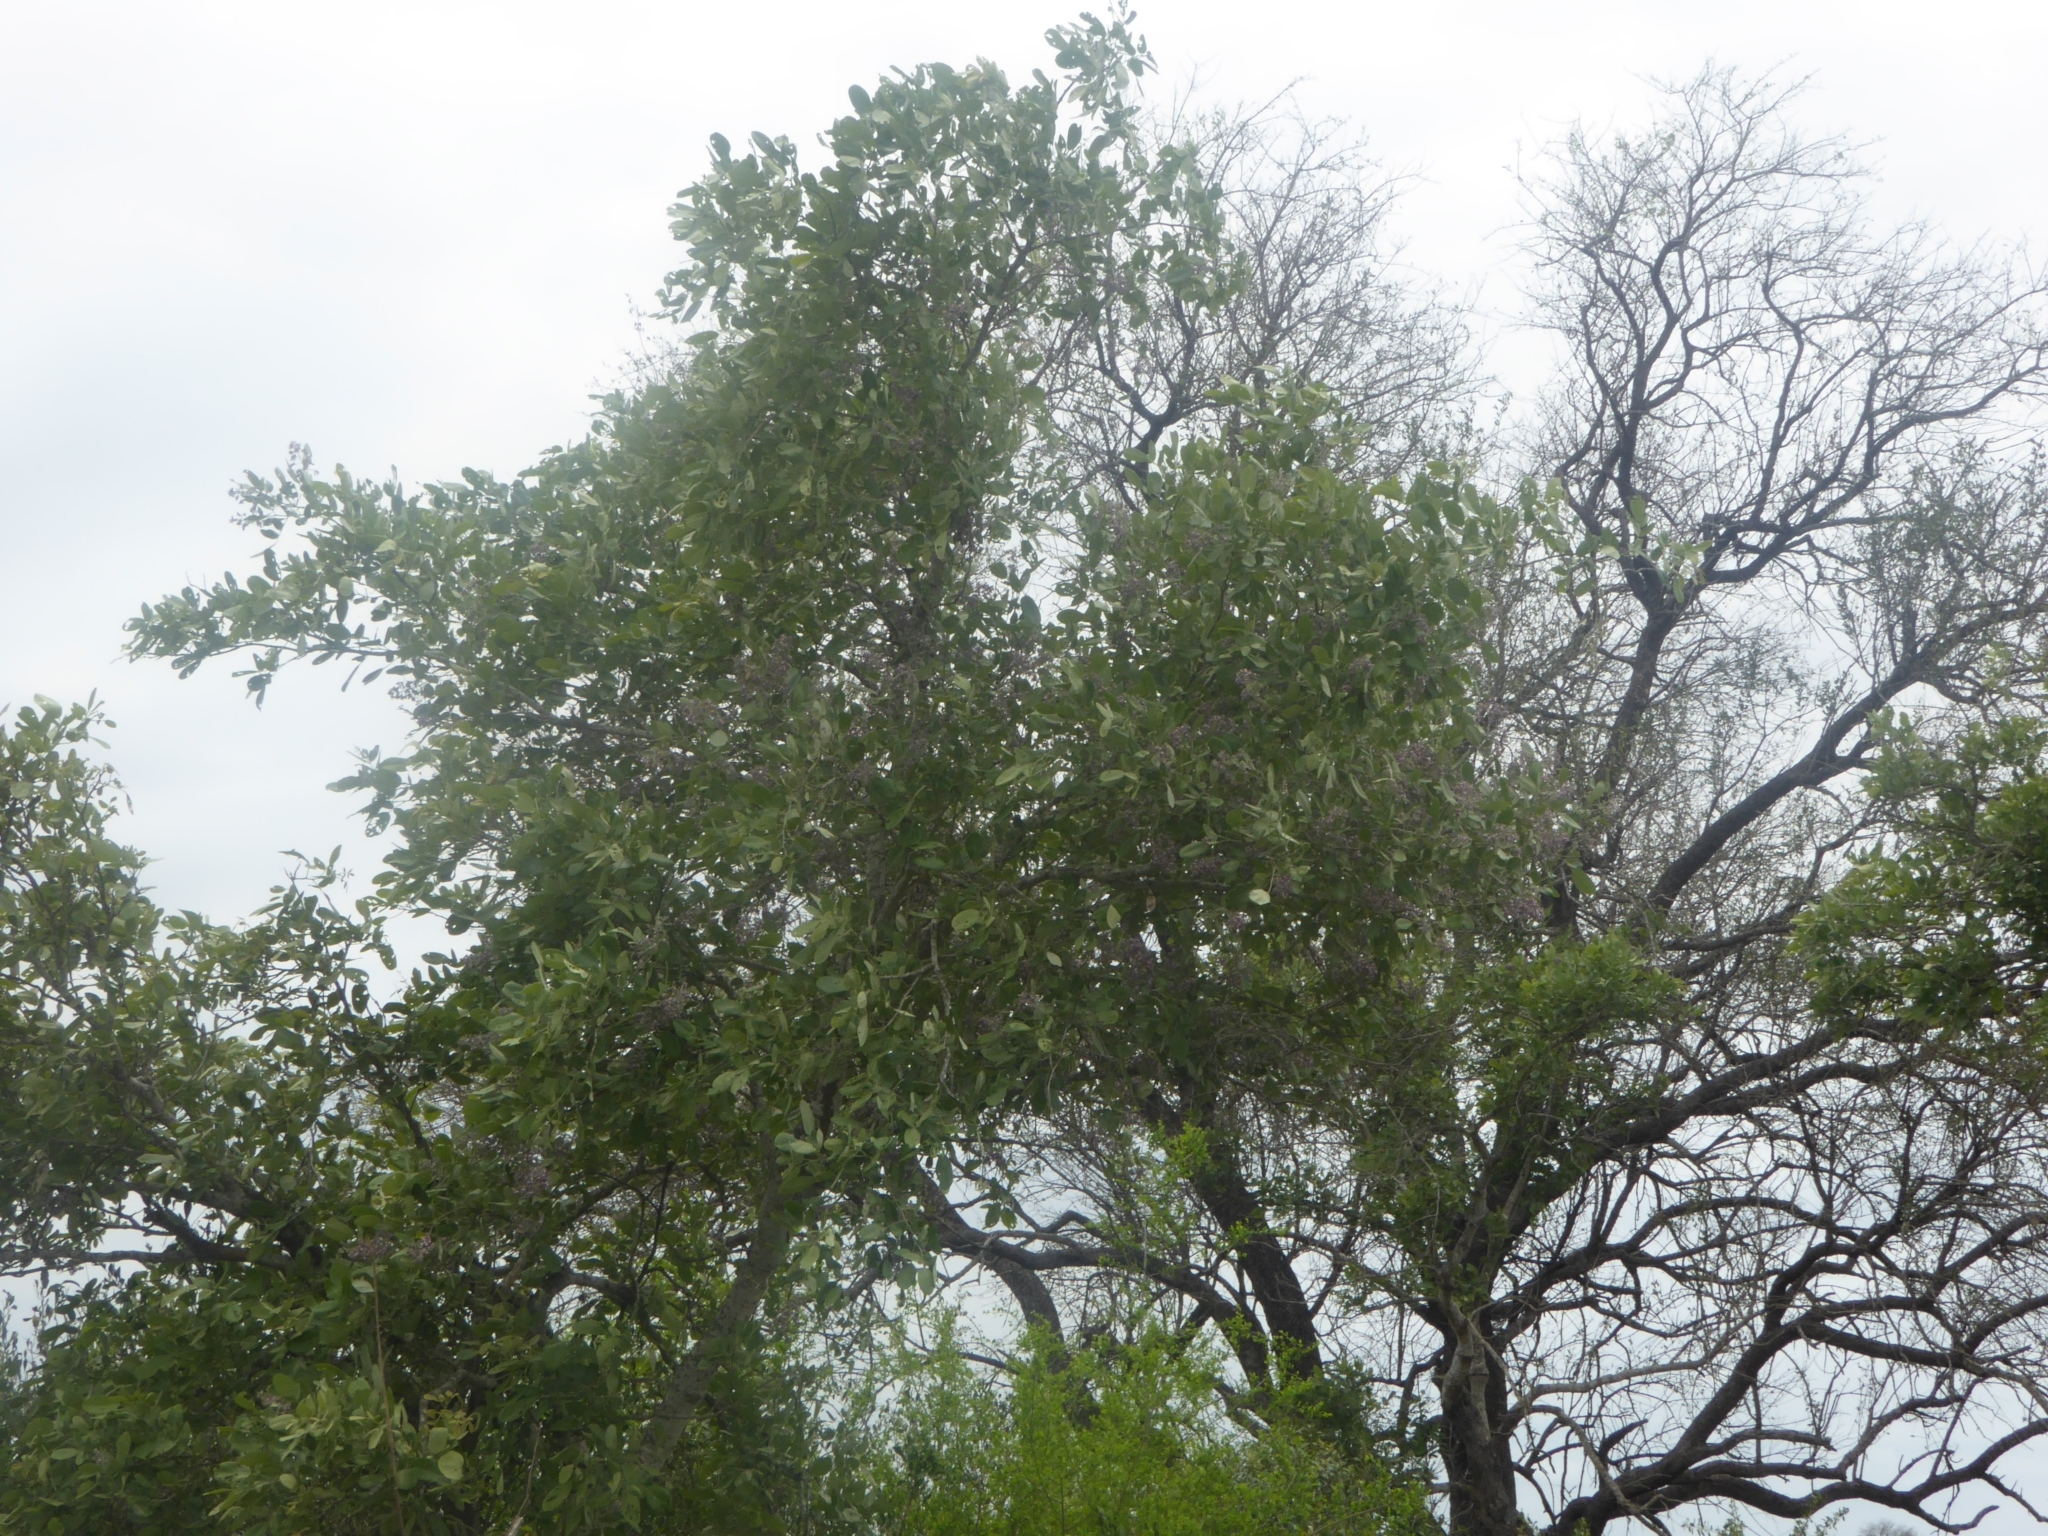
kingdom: Plantae
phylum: Tracheophyta
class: Magnoliopsida
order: Fabales
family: Fabaceae
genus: Philenoptera
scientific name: Philenoptera violacea
